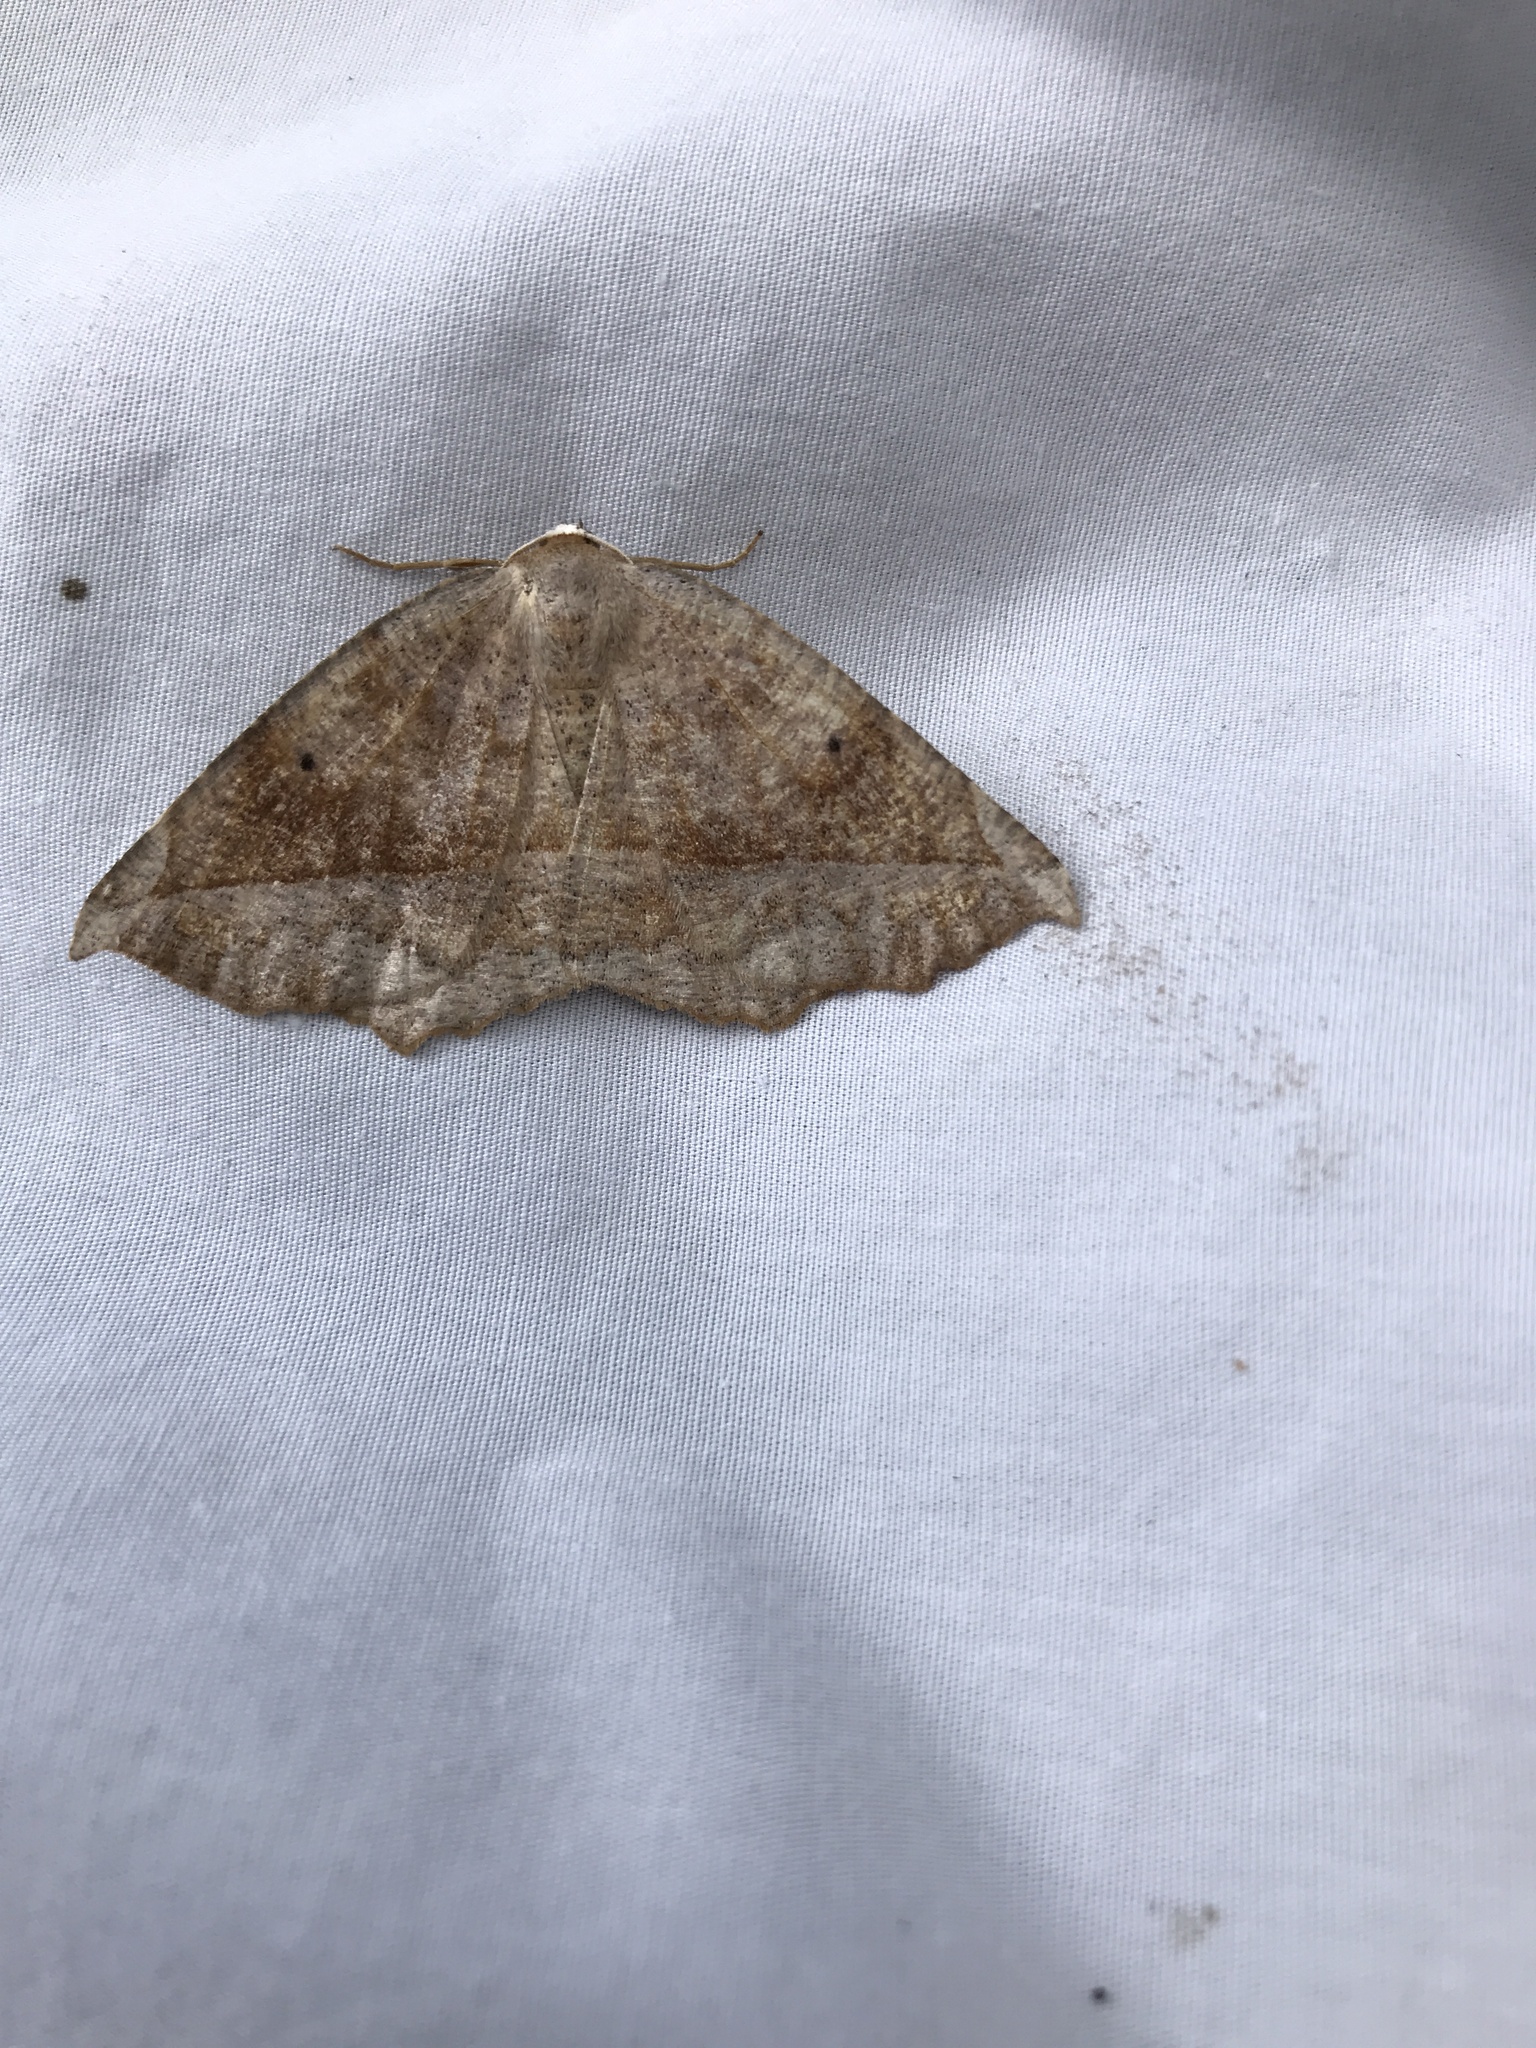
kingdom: Animalia
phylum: Arthropoda
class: Insecta
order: Lepidoptera
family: Geometridae
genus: Eutrapela
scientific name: Eutrapela clemataria
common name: Curved-toothed geometer
